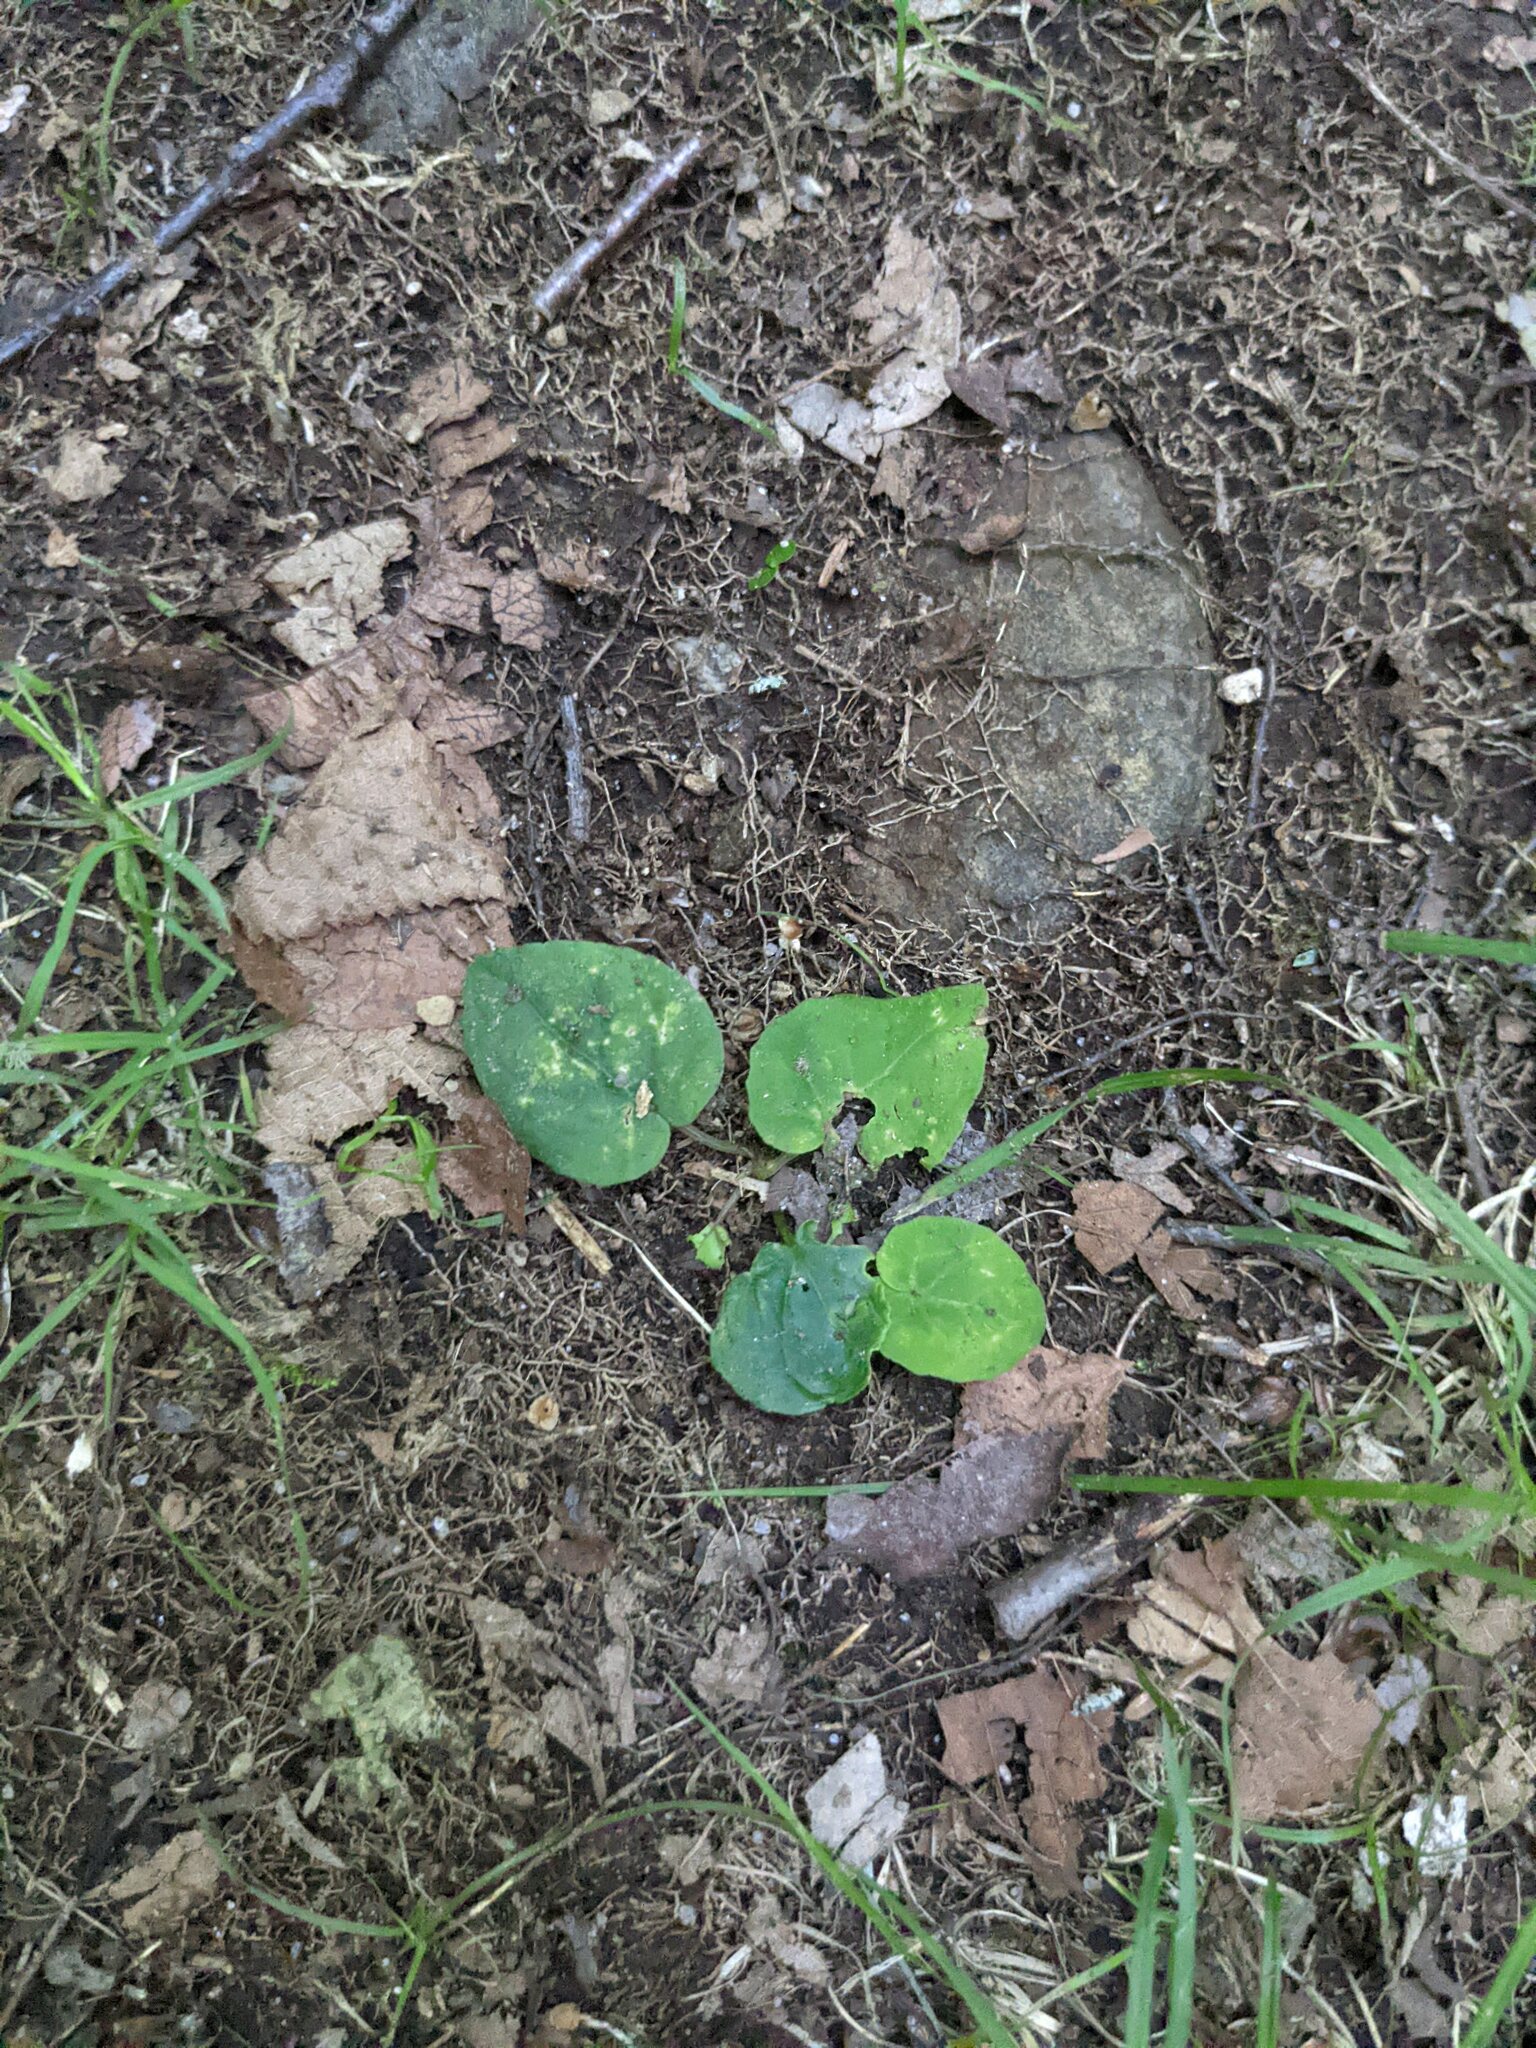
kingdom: Plantae
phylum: Tracheophyta
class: Magnoliopsida
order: Malpighiales
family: Violaceae
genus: Viola
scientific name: Viola rotundifolia
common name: Early yellow violet
